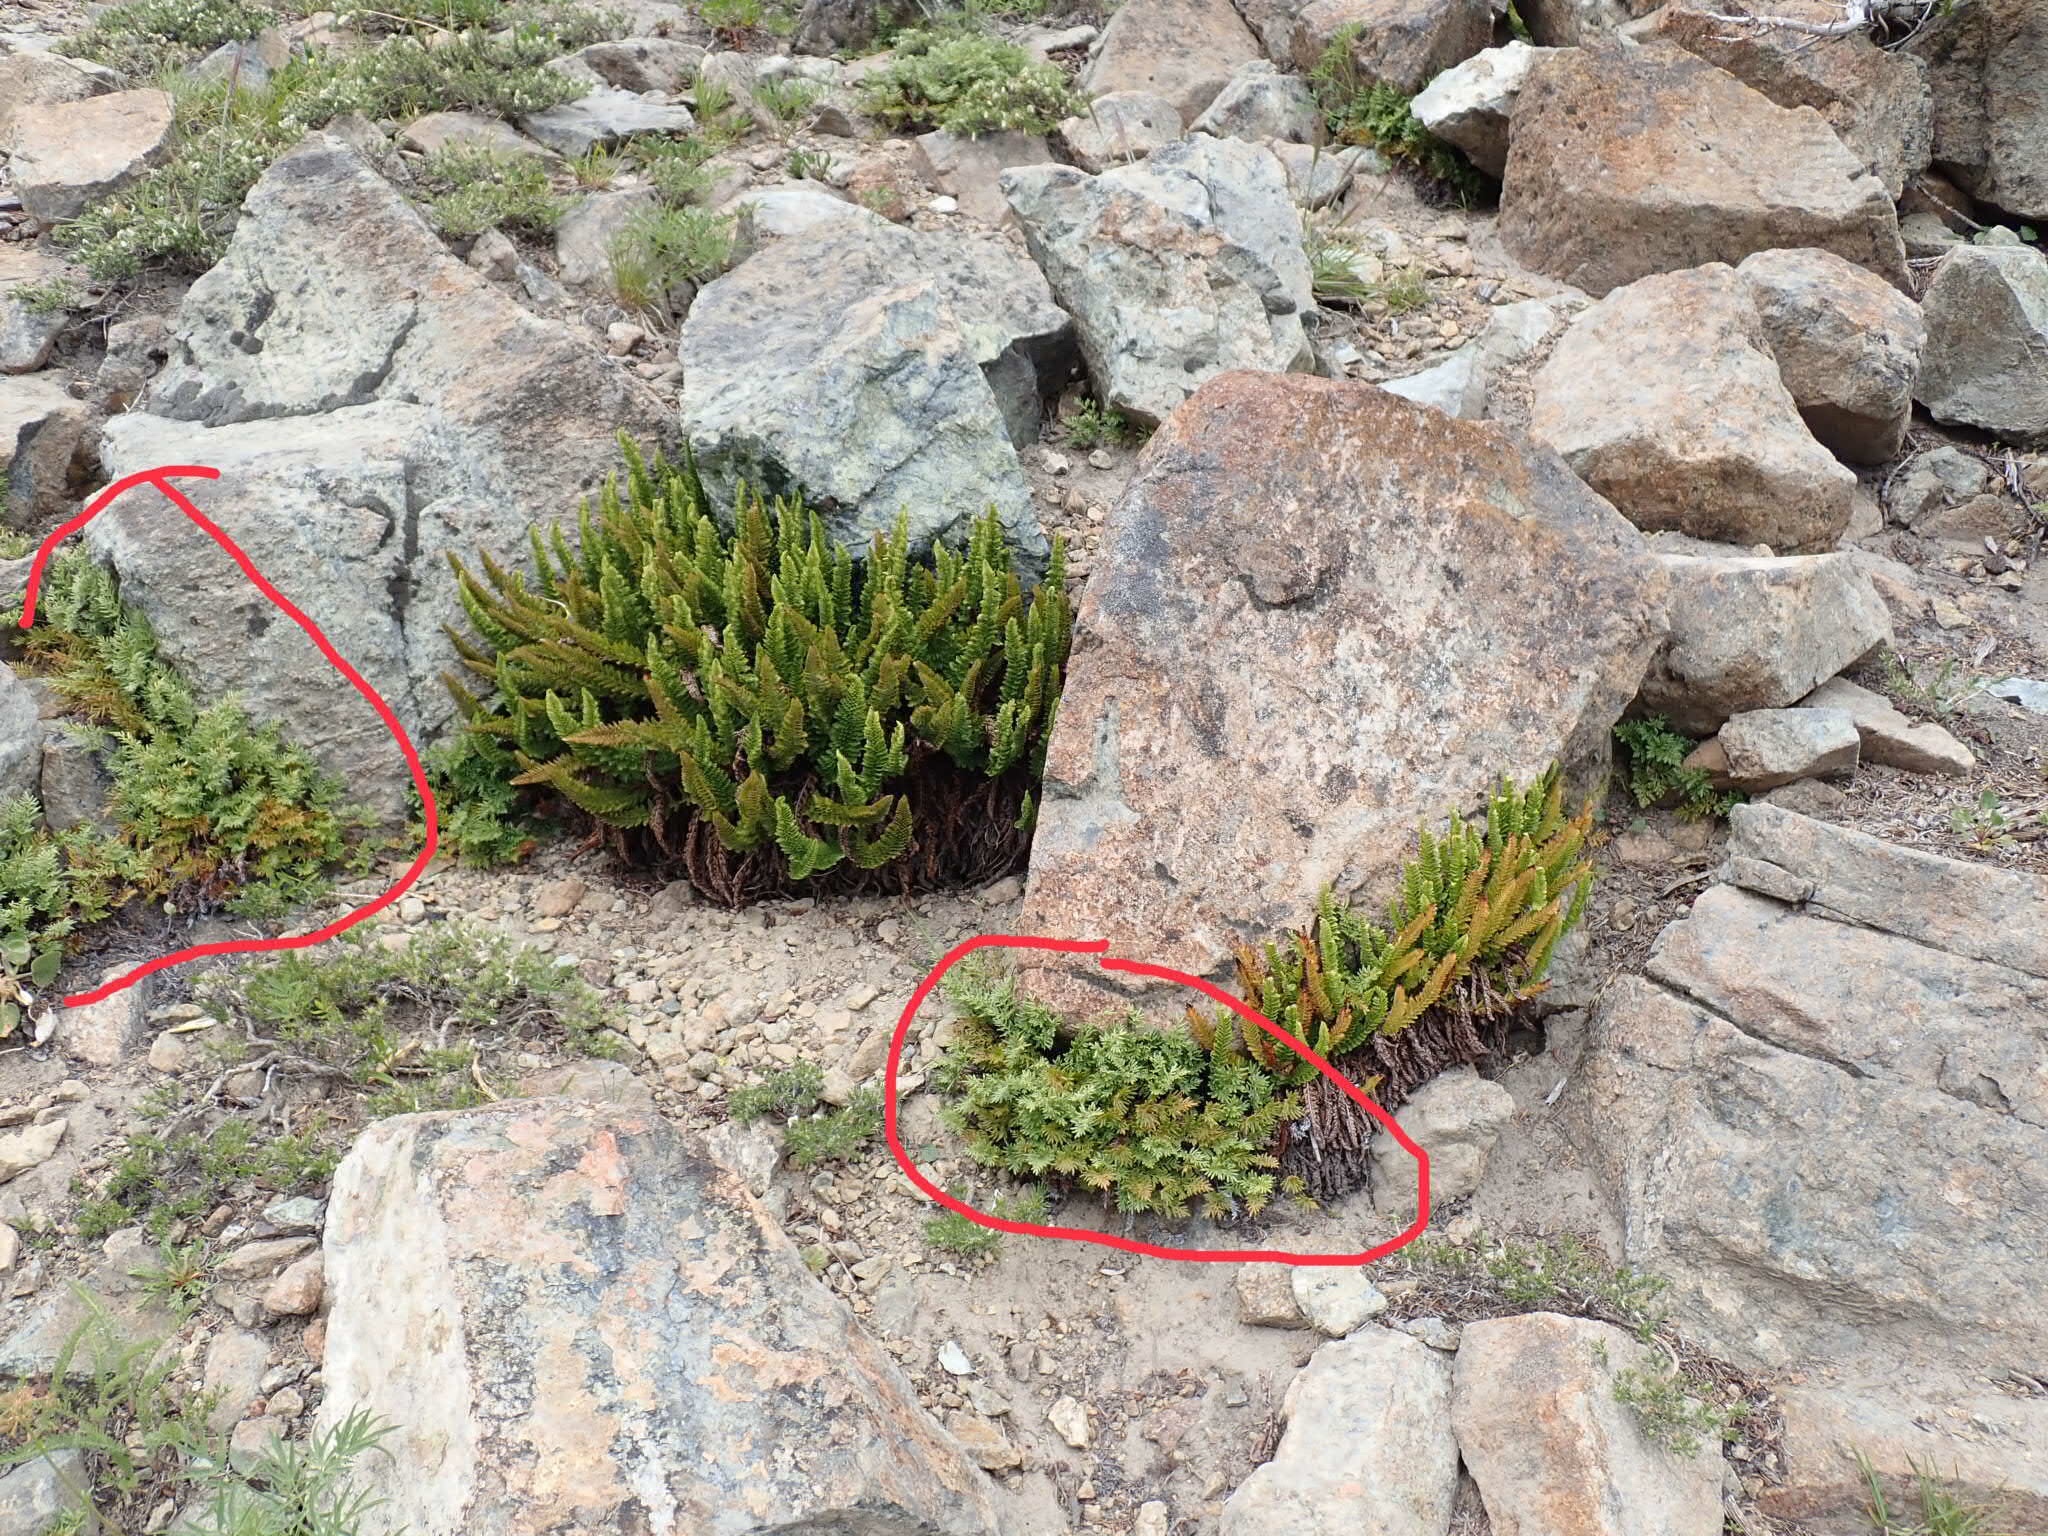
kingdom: Plantae
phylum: Tracheophyta
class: Polypodiopsida
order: Polypodiales
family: Pteridaceae
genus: Aspidotis
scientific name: Aspidotis densa
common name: Indian's dream
